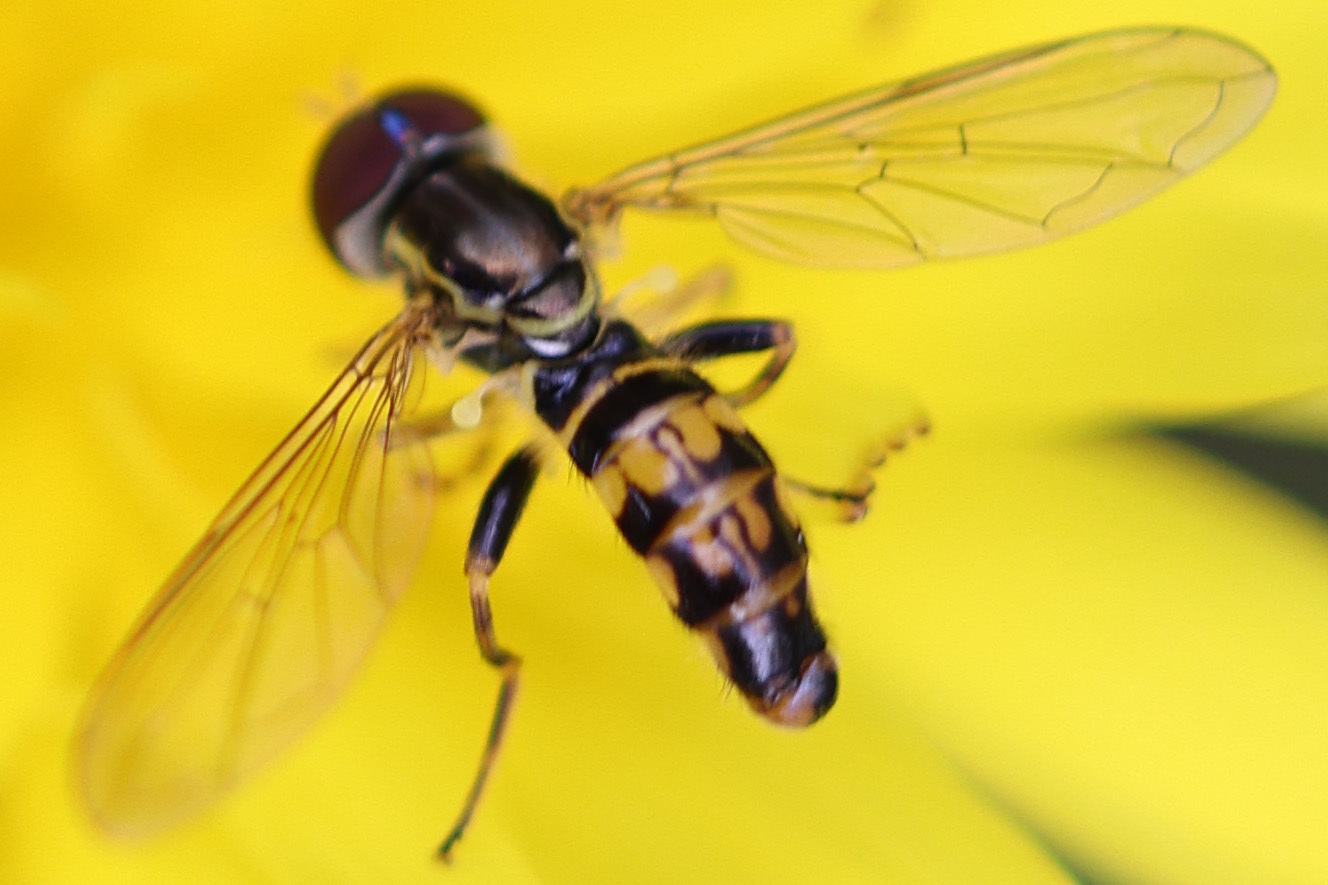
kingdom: Animalia
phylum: Arthropoda
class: Insecta
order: Diptera
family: Syrphidae
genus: Toxomerus
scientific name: Toxomerus geminatus
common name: Eastern calligrapher
